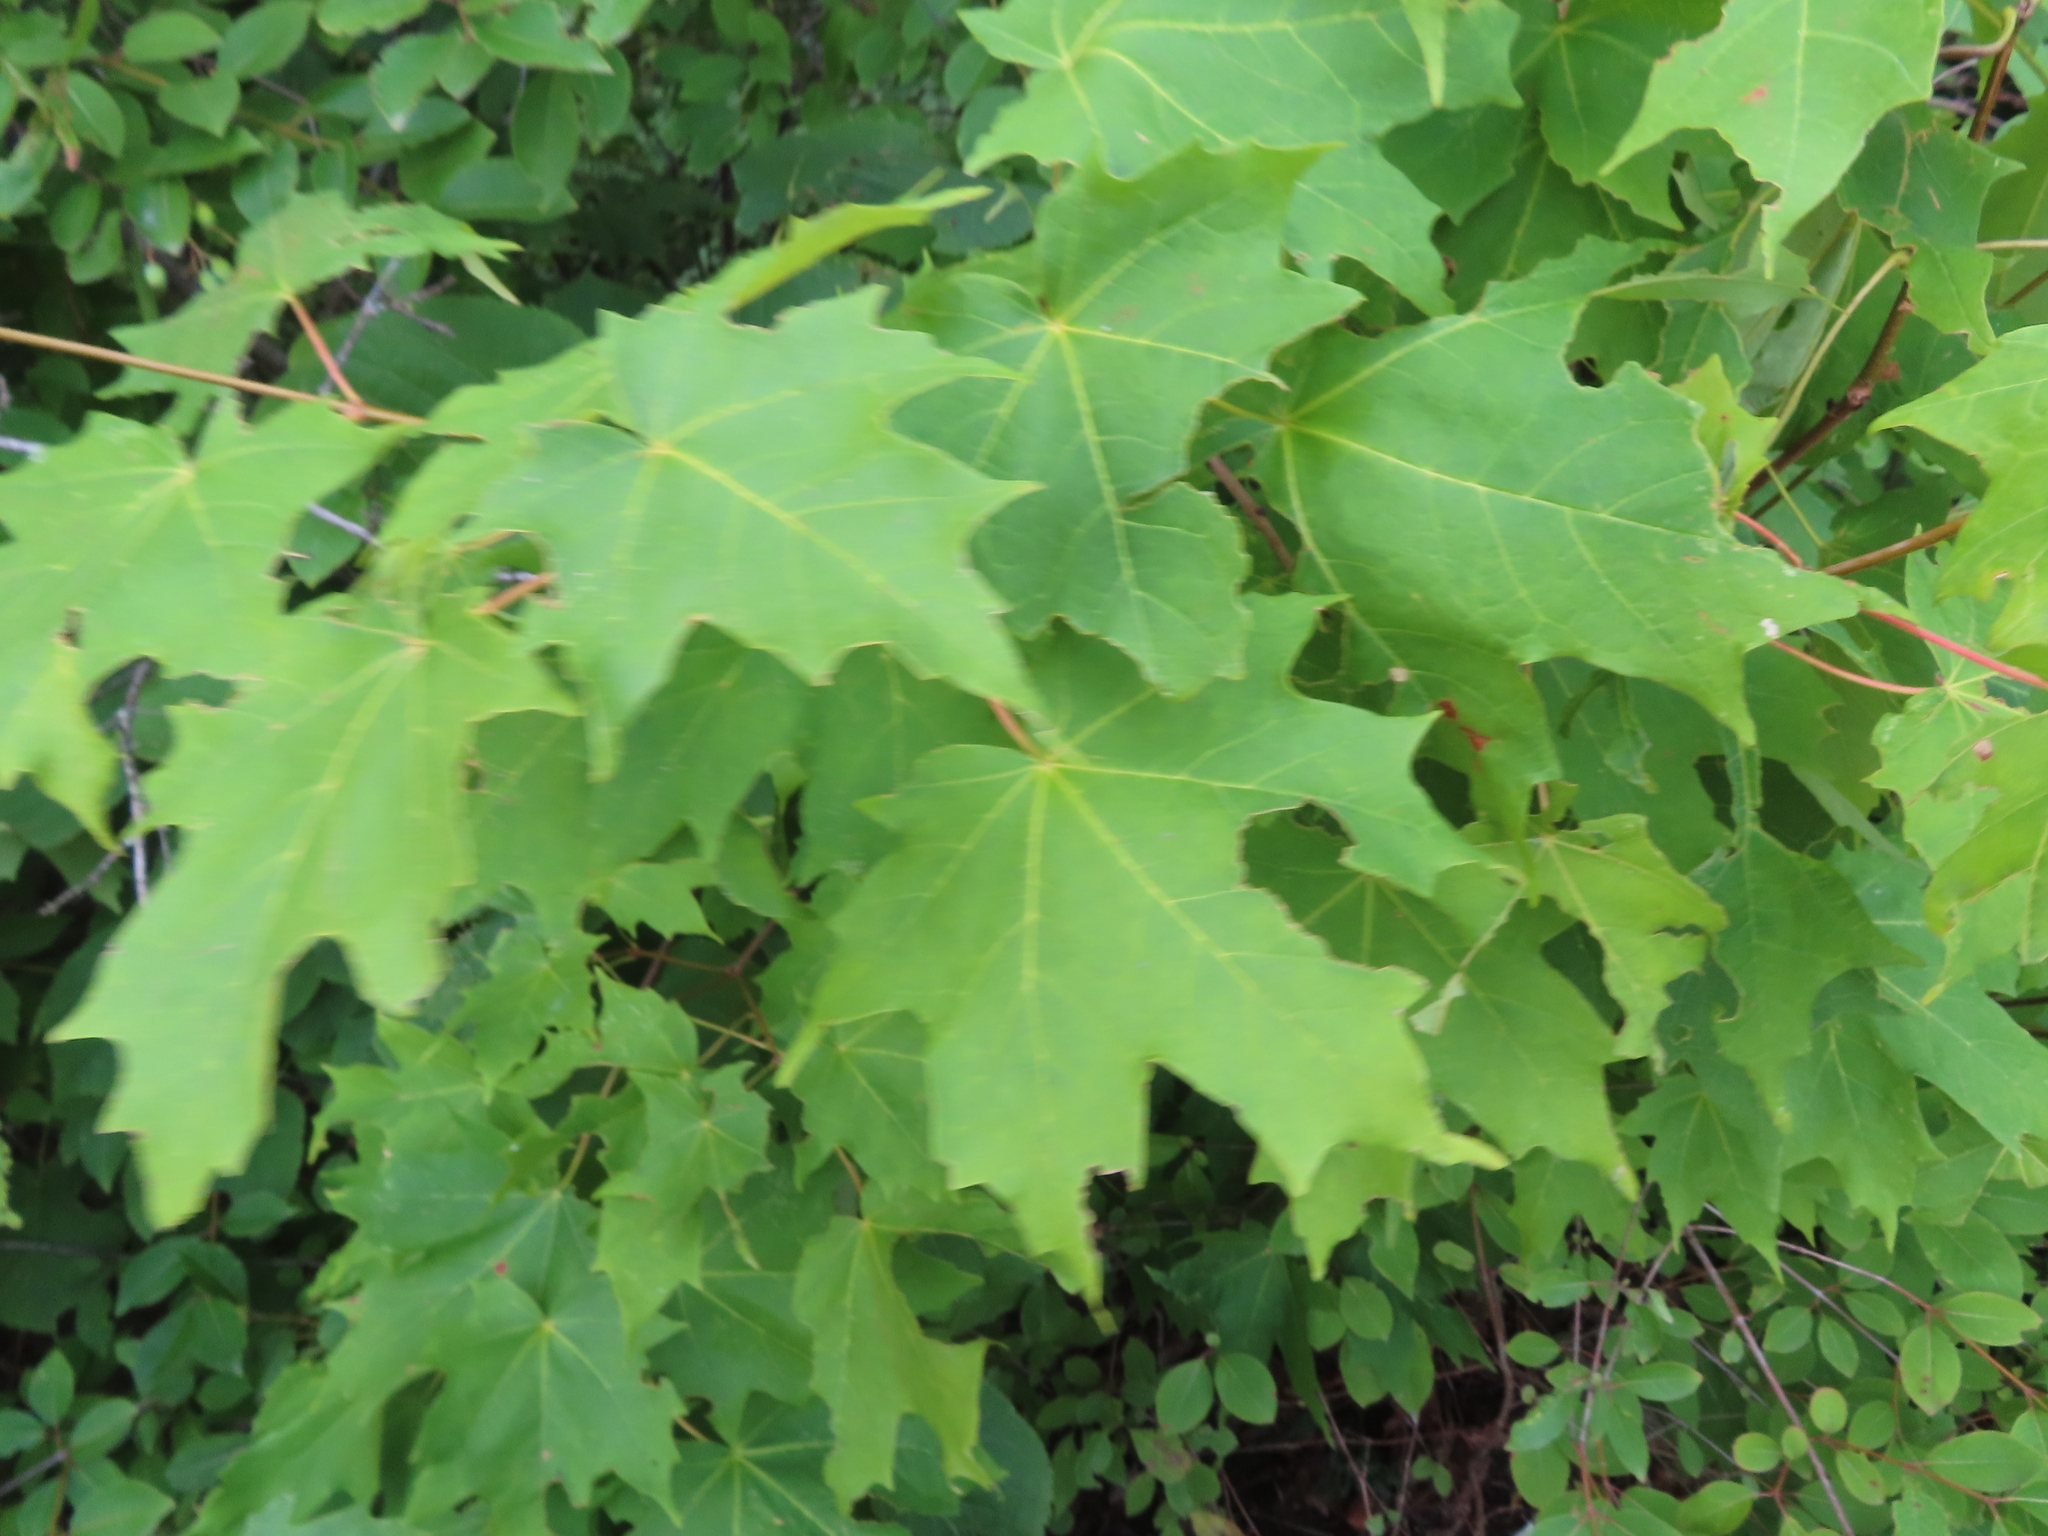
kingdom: Plantae
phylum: Tracheophyta
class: Magnoliopsida
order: Sapindales
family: Sapindaceae
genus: Acer
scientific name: Acer saccharum
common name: Sugar maple
